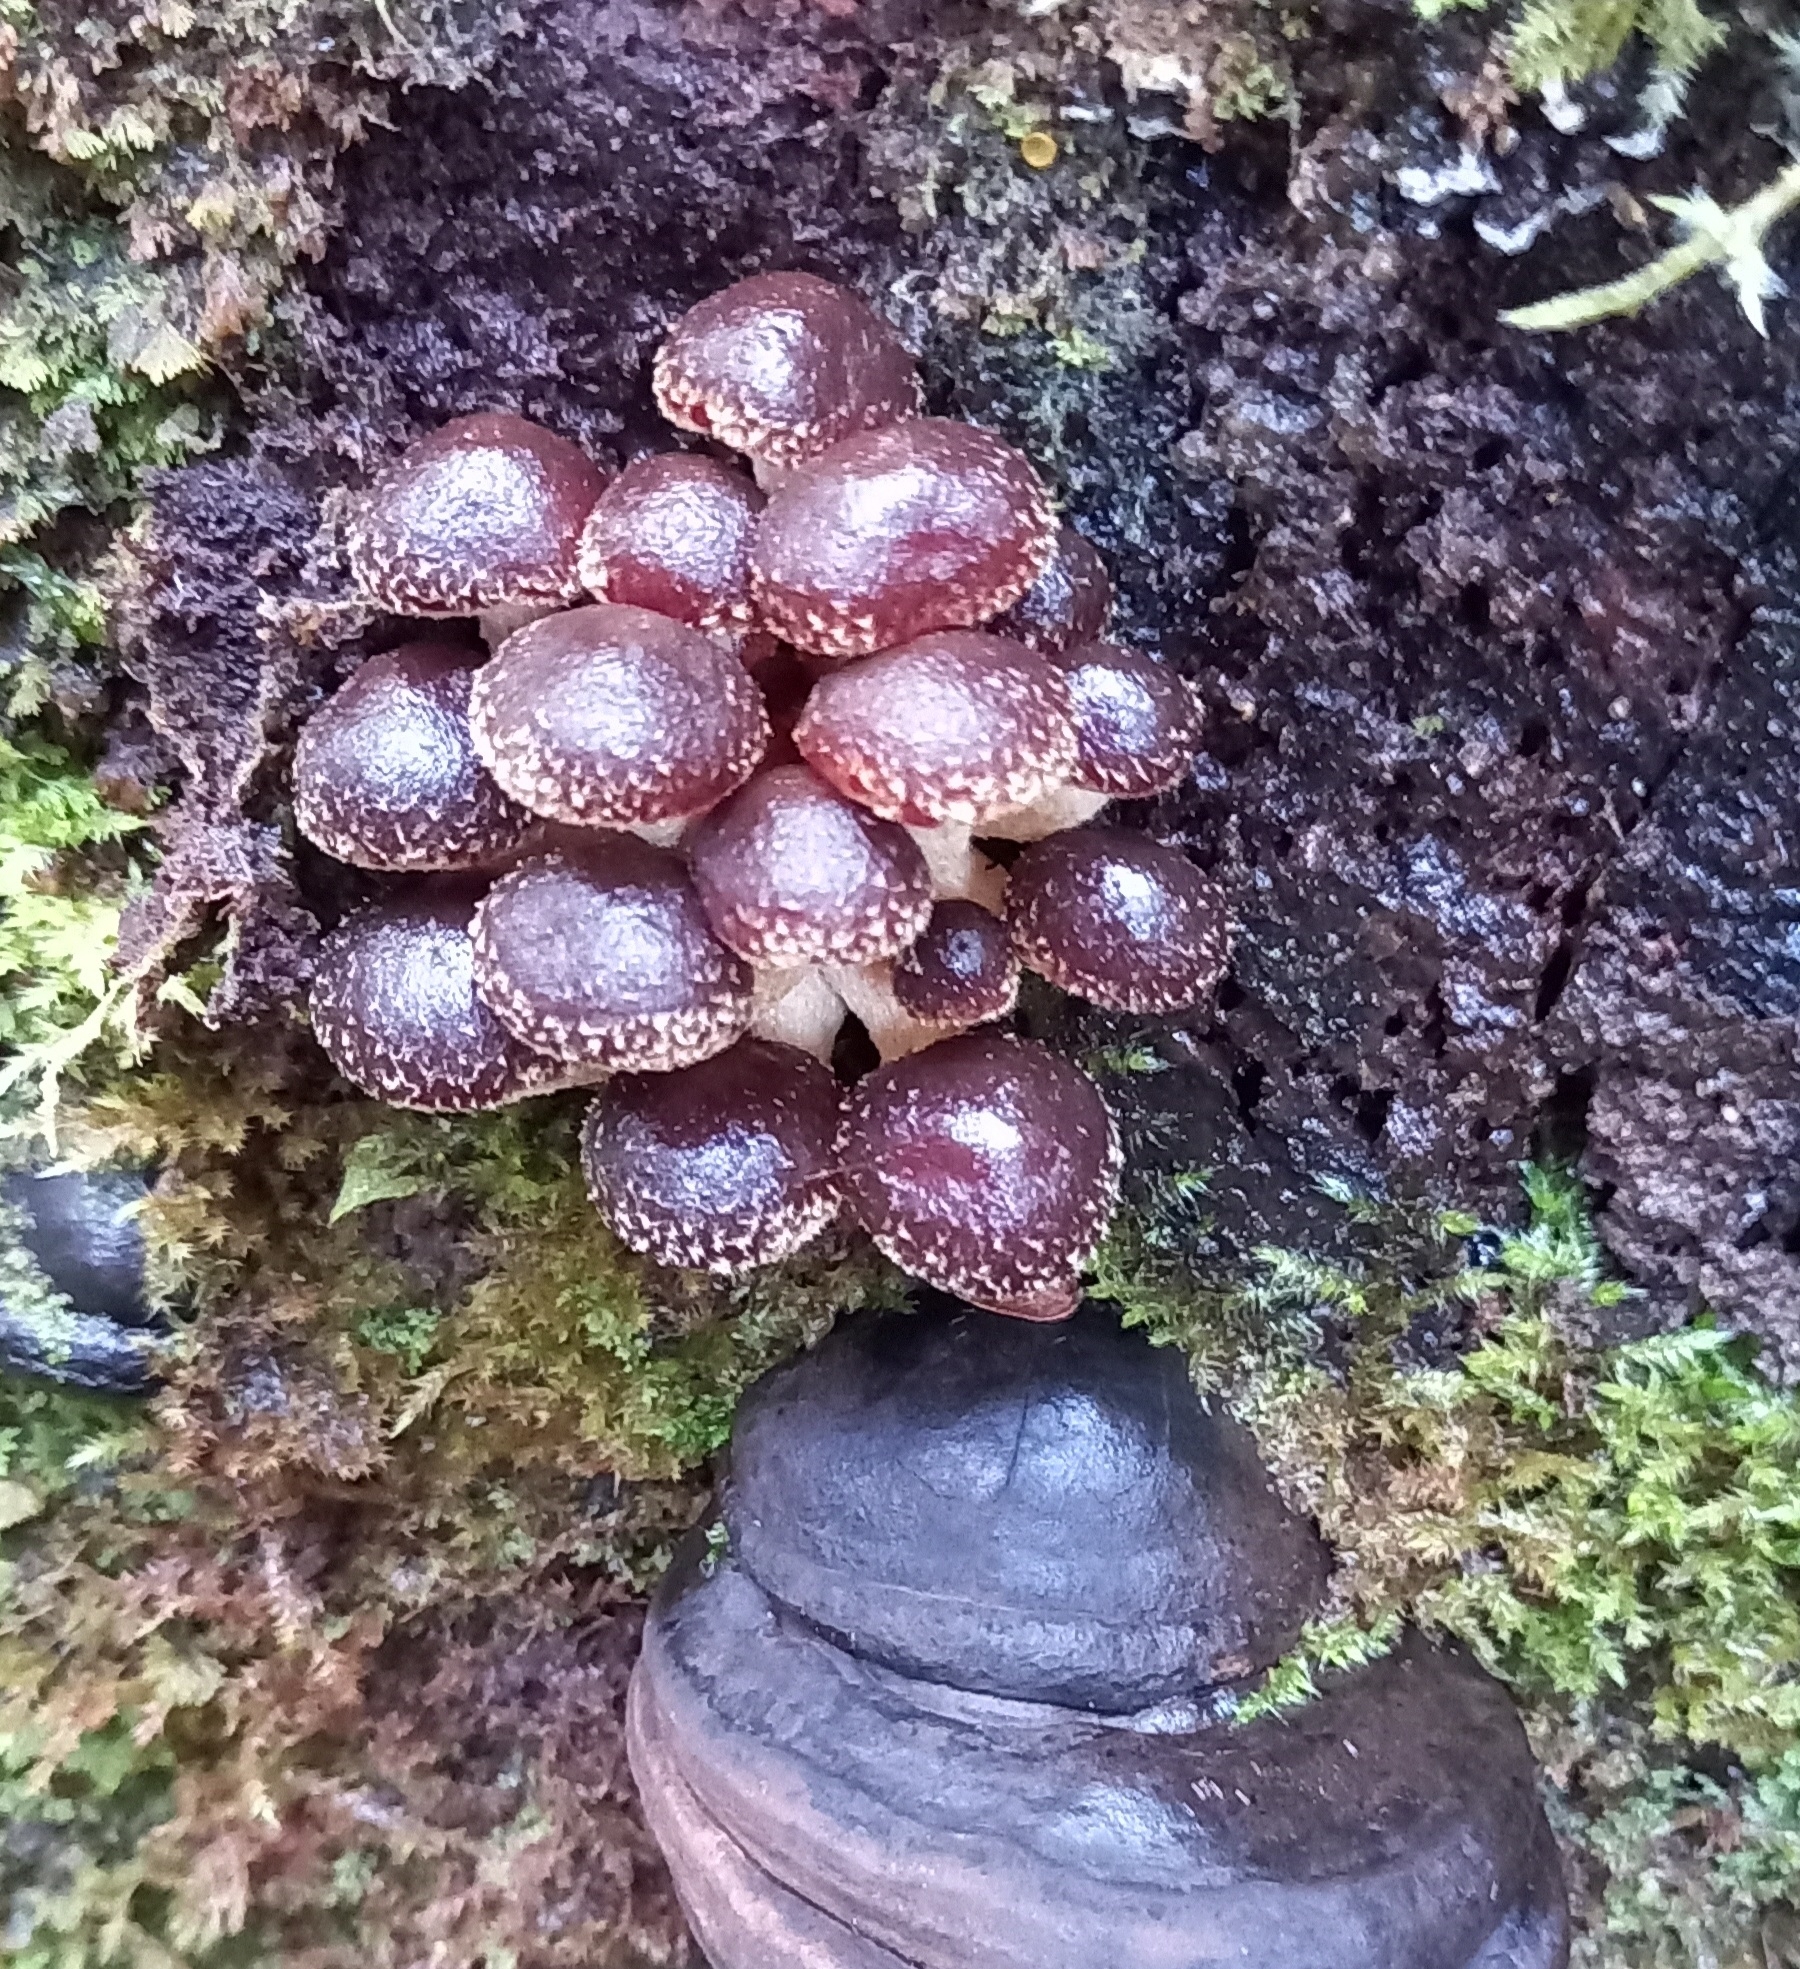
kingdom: Fungi
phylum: Basidiomycota
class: Agaricomycetes
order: Agaricales
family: Strophariaceae
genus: Hypholoma
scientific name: Hypholoma brunneum
